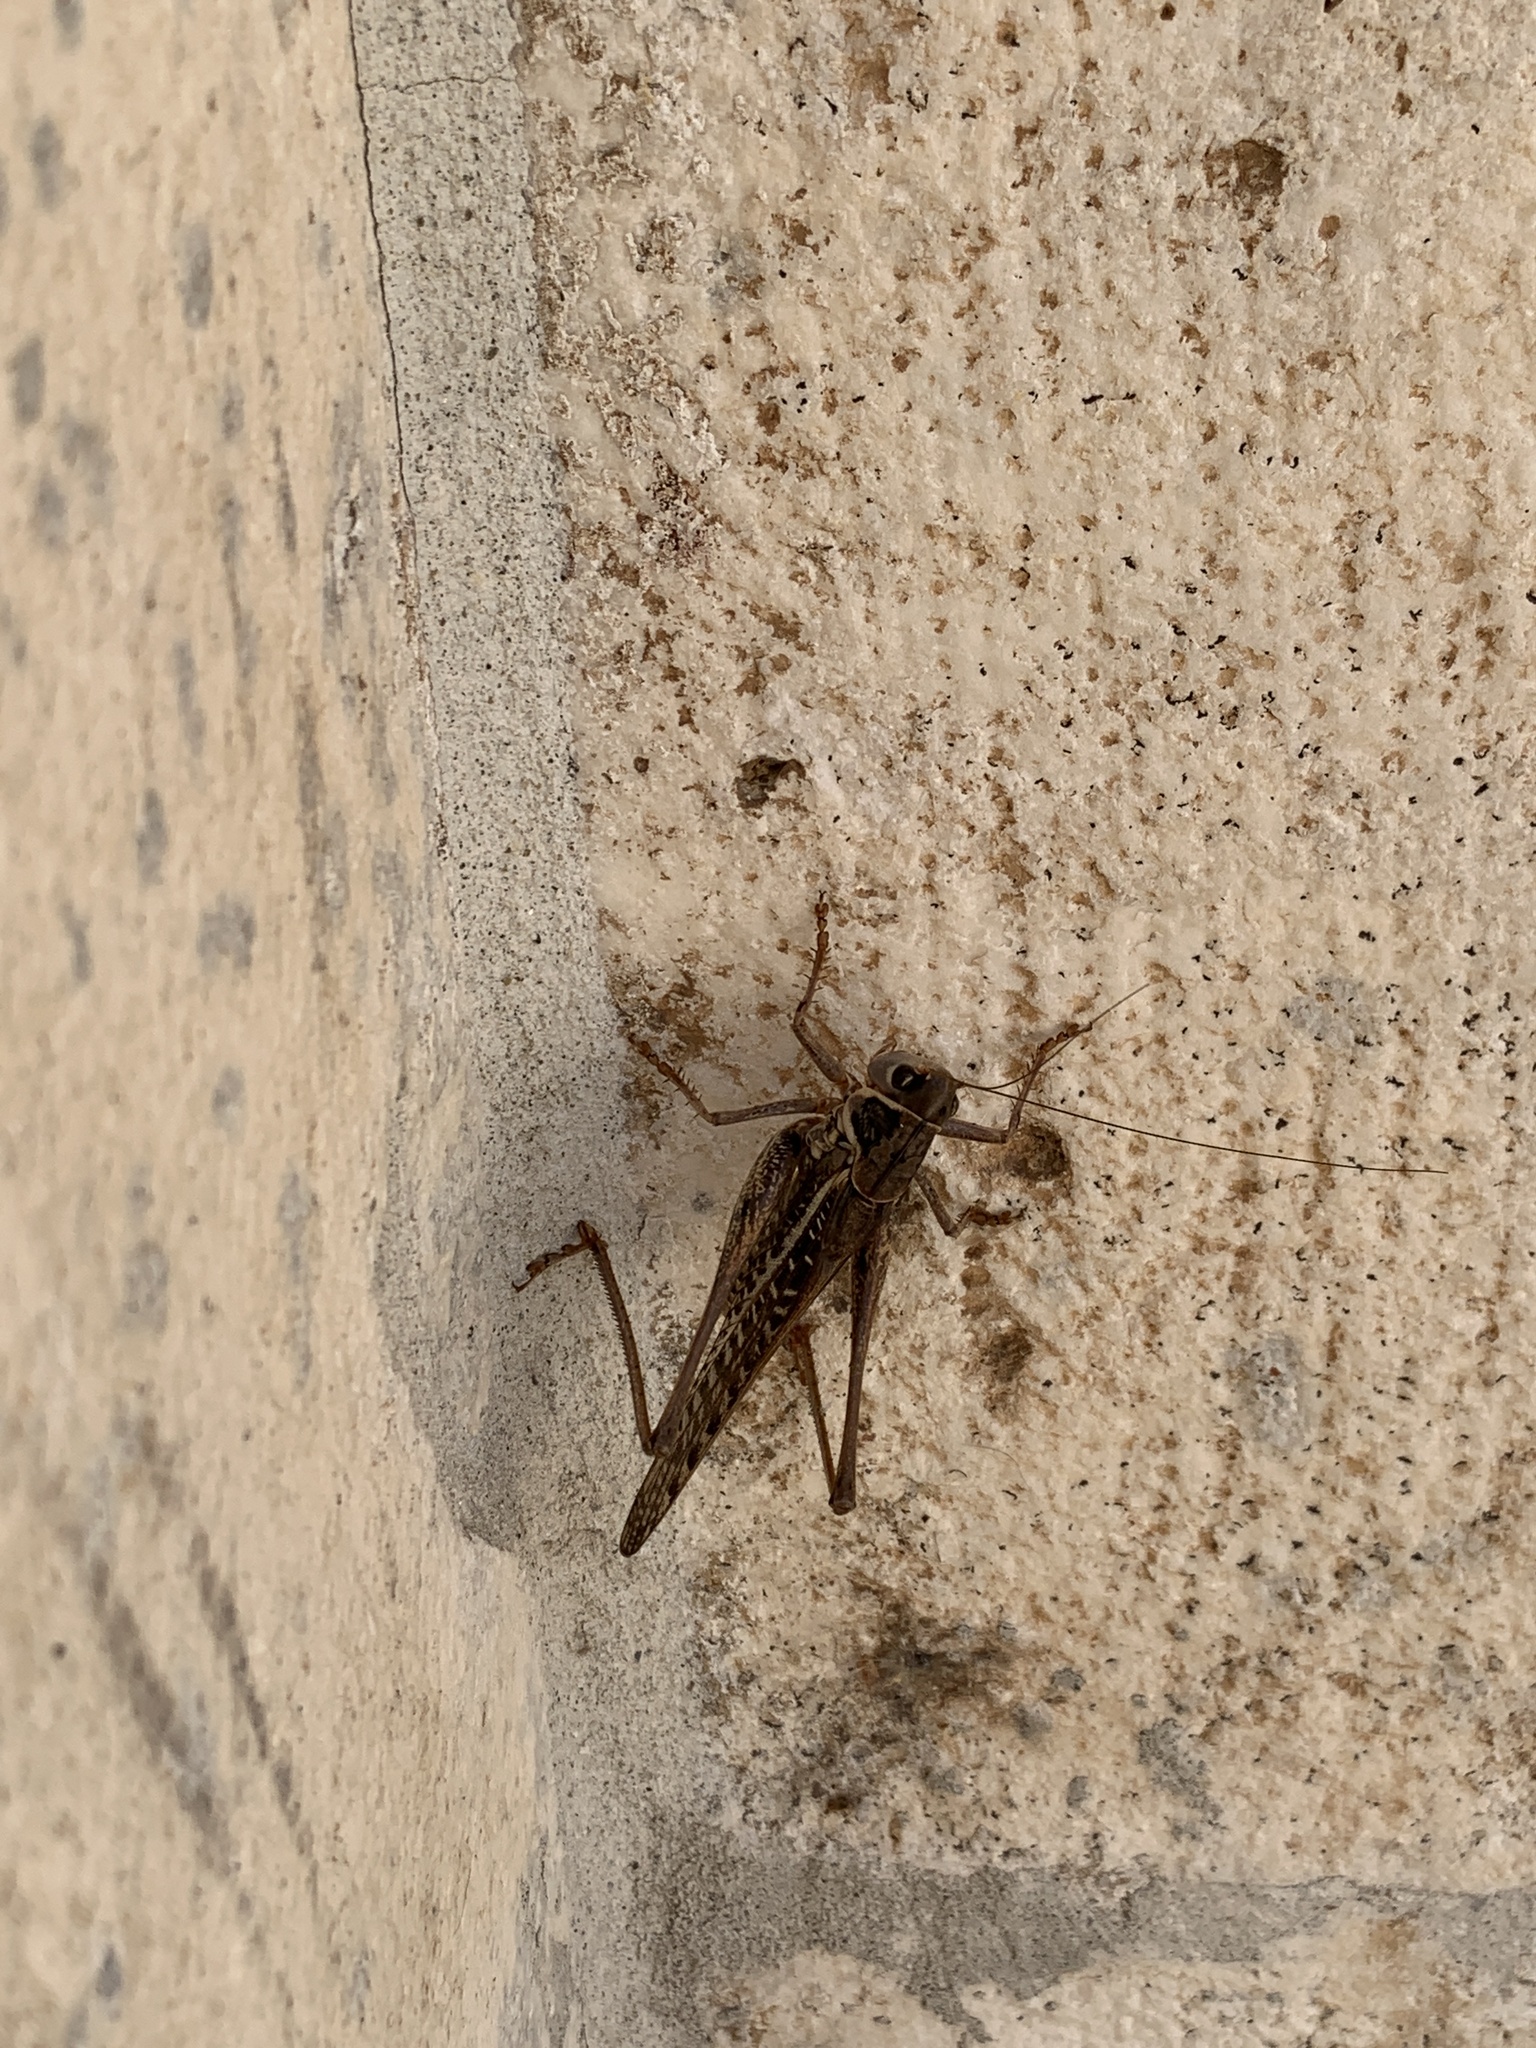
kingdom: Animalia
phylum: Arthropoda
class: Insecta
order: Orthoptera
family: Tettigoniidae
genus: Decticus
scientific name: Decticus albifrons
